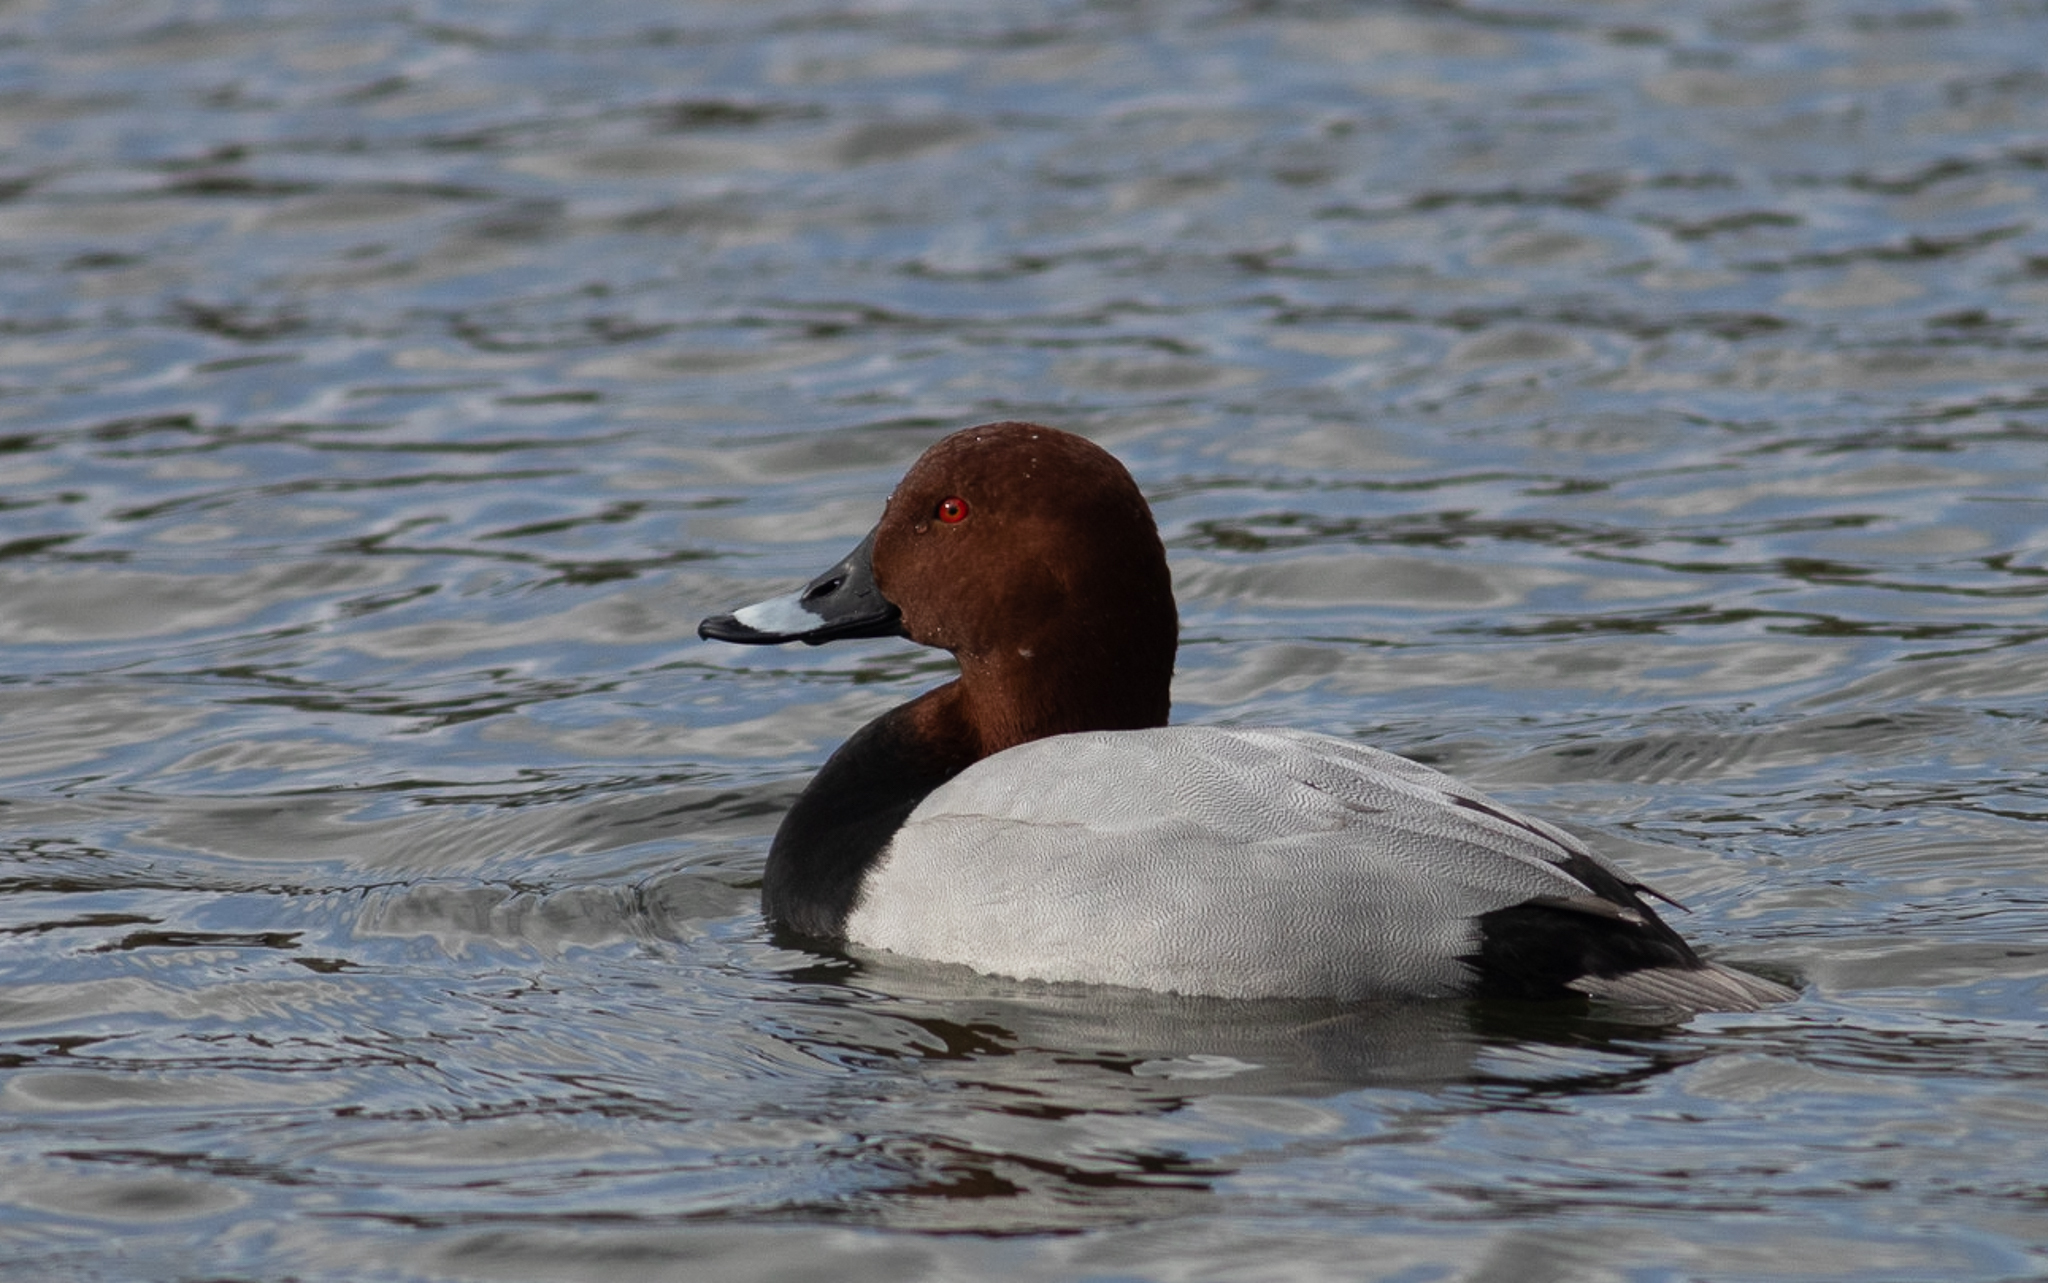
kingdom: Animalia
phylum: Chordata
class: Aves
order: Anseriformes
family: Anatidae
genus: Aythya
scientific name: Aythya ferina
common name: Common pochard
